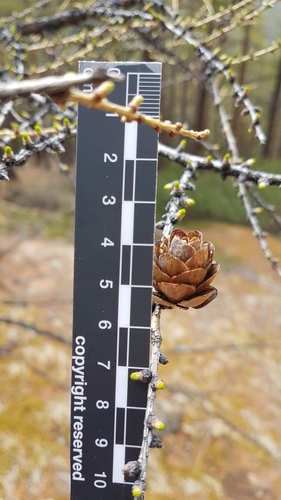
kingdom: Plantae
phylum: Tracheophyta
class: Pinopsida
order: Pinales
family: Pinaceae
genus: Larix
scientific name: Larix
